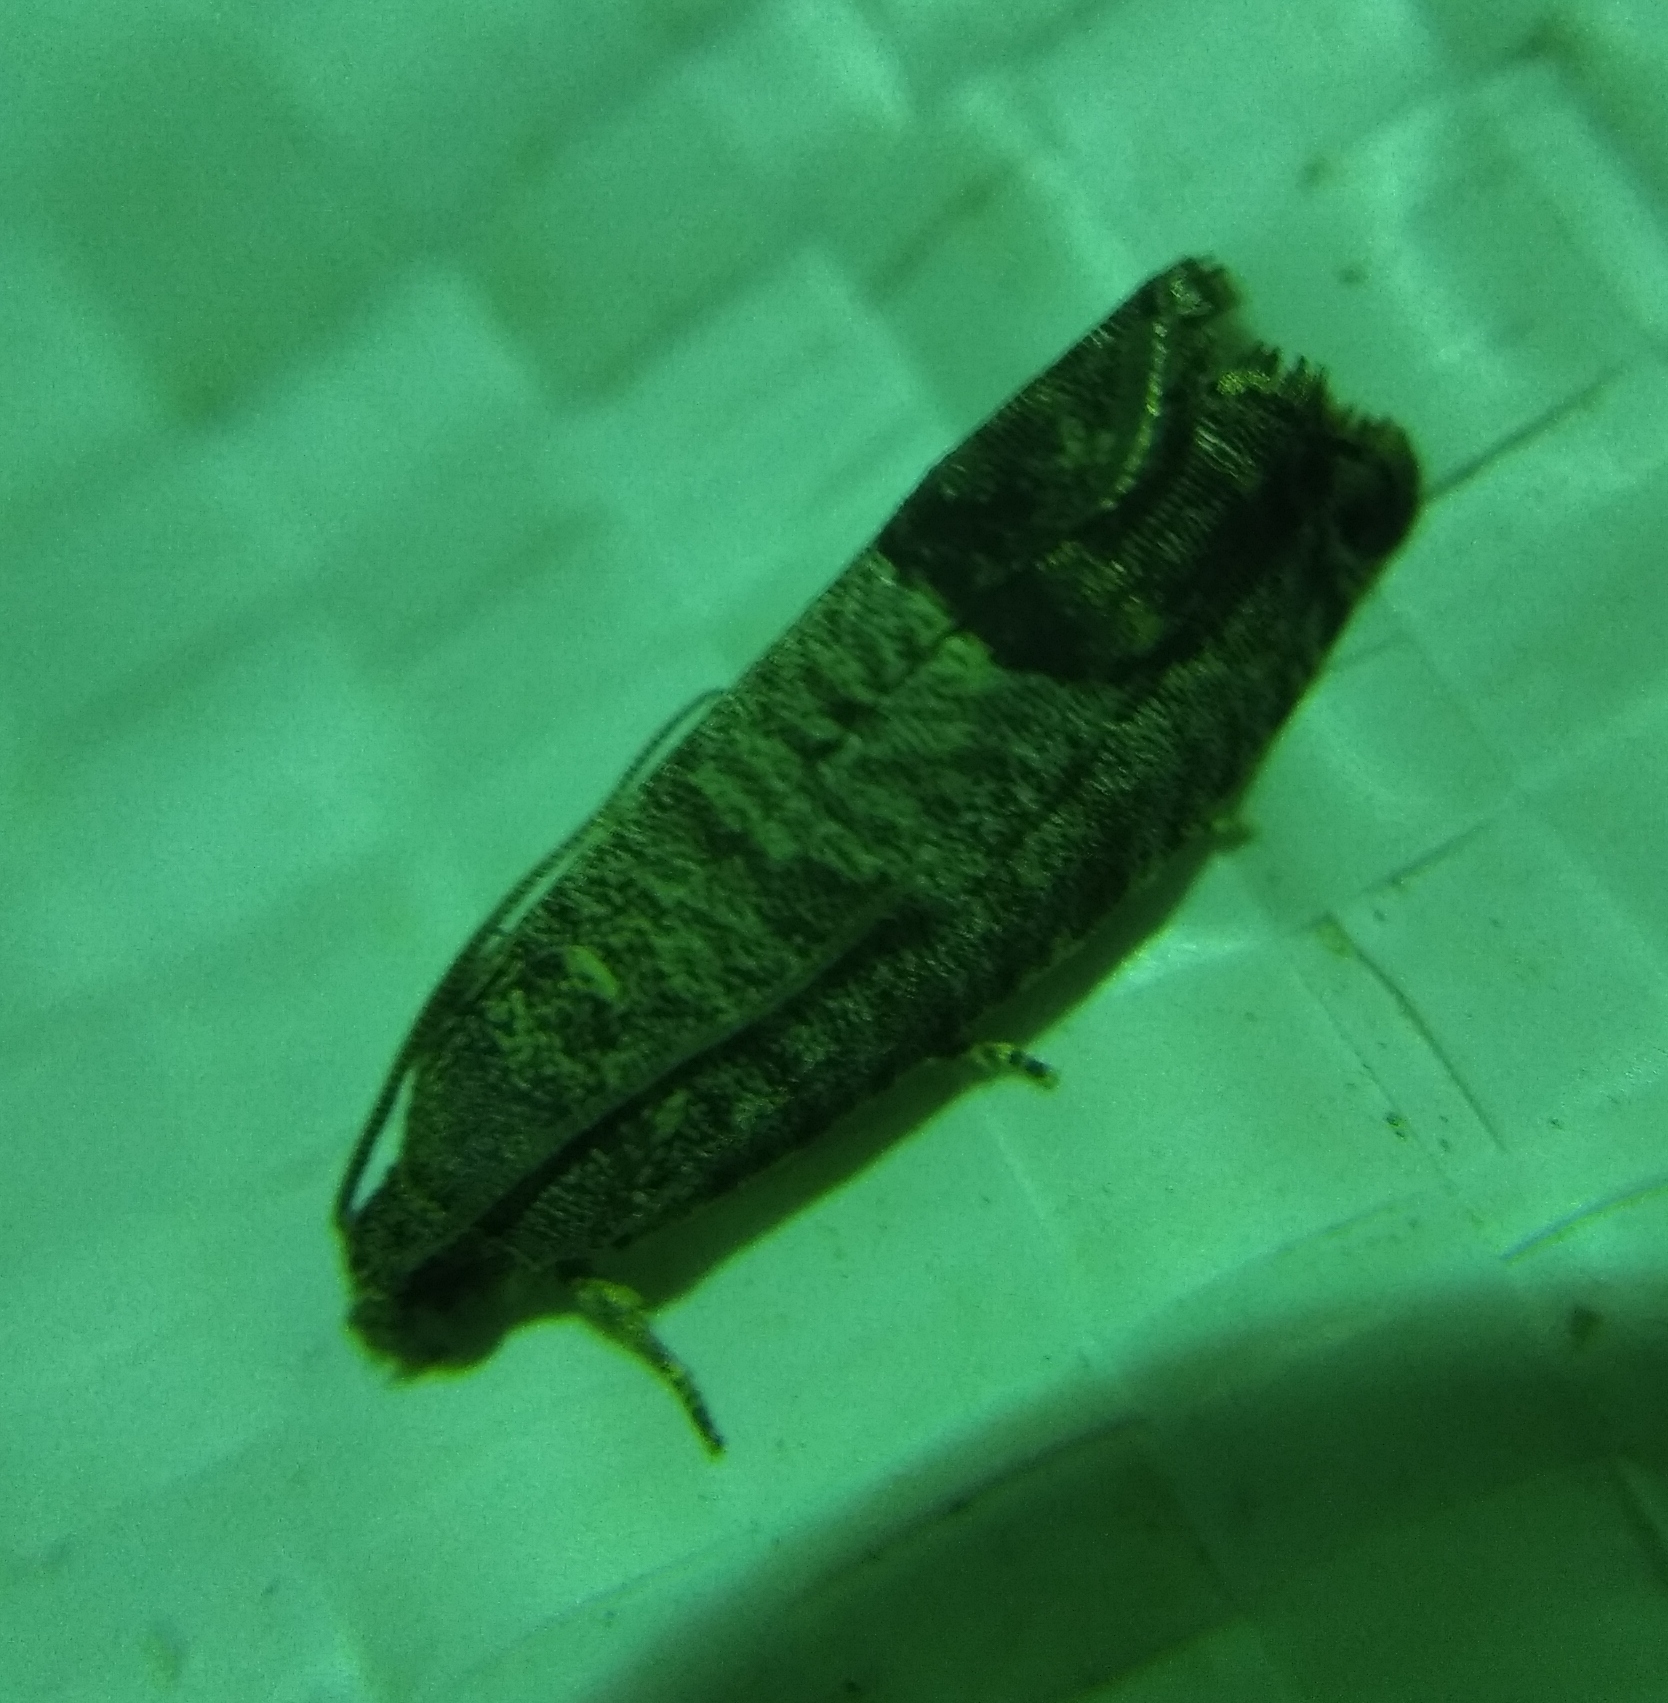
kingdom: Animalia
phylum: Arthropoda
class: Insecta
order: Lepidoptera
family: Tortricidae
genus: Cydia
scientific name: Cydia pomonella
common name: Codling moth
